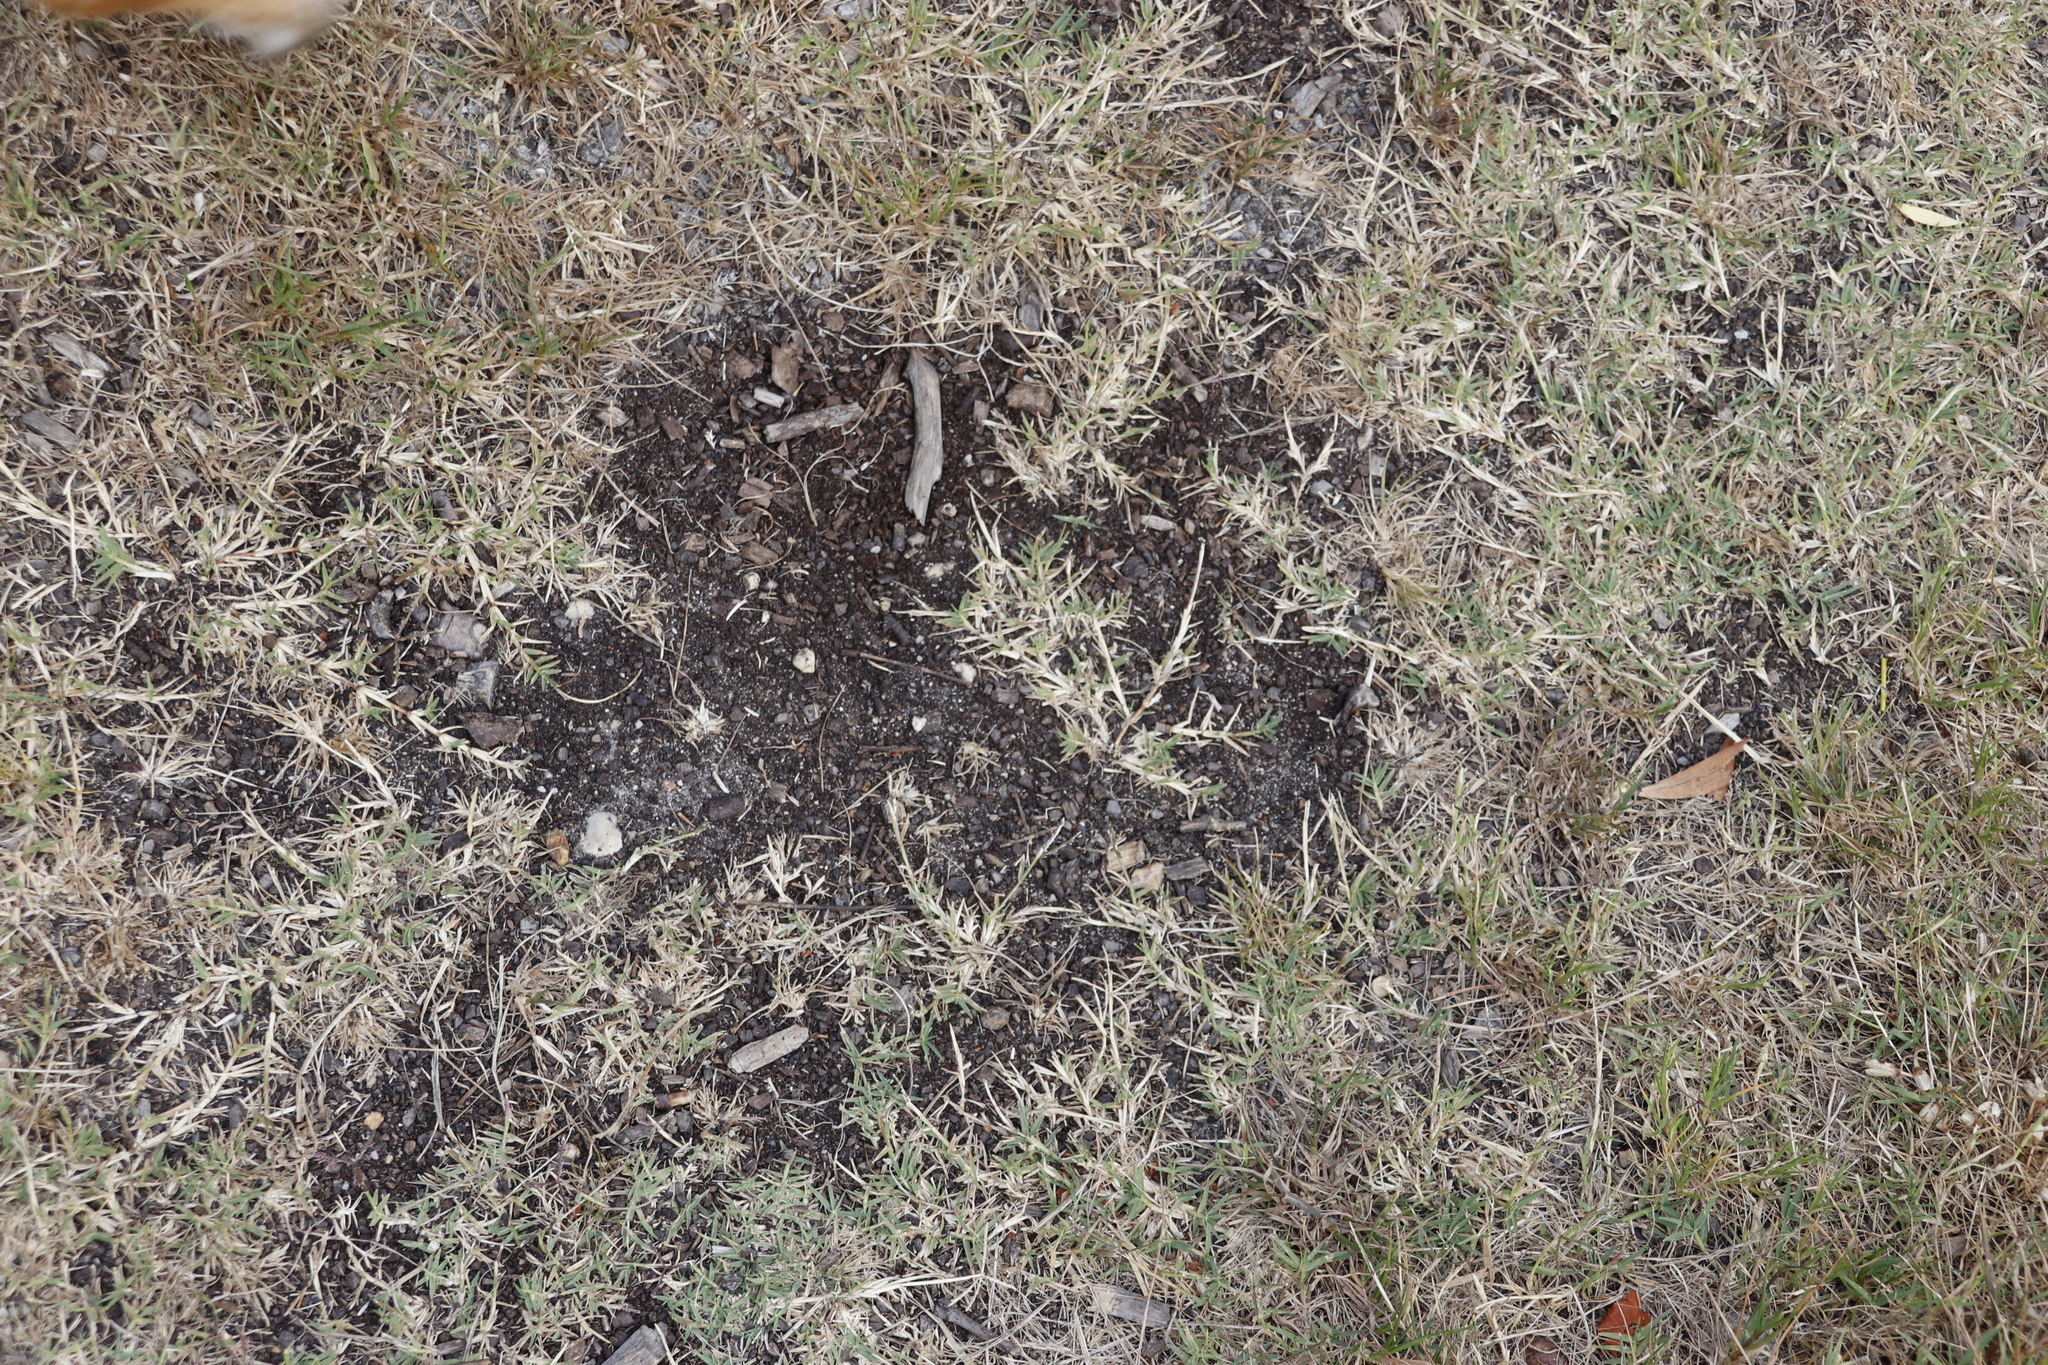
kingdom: Plantae
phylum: Tracheophyta
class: Liliopsida
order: Poales
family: Poaceae
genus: Cynodon
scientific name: Cynodon dactylon
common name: Bermuda grass
